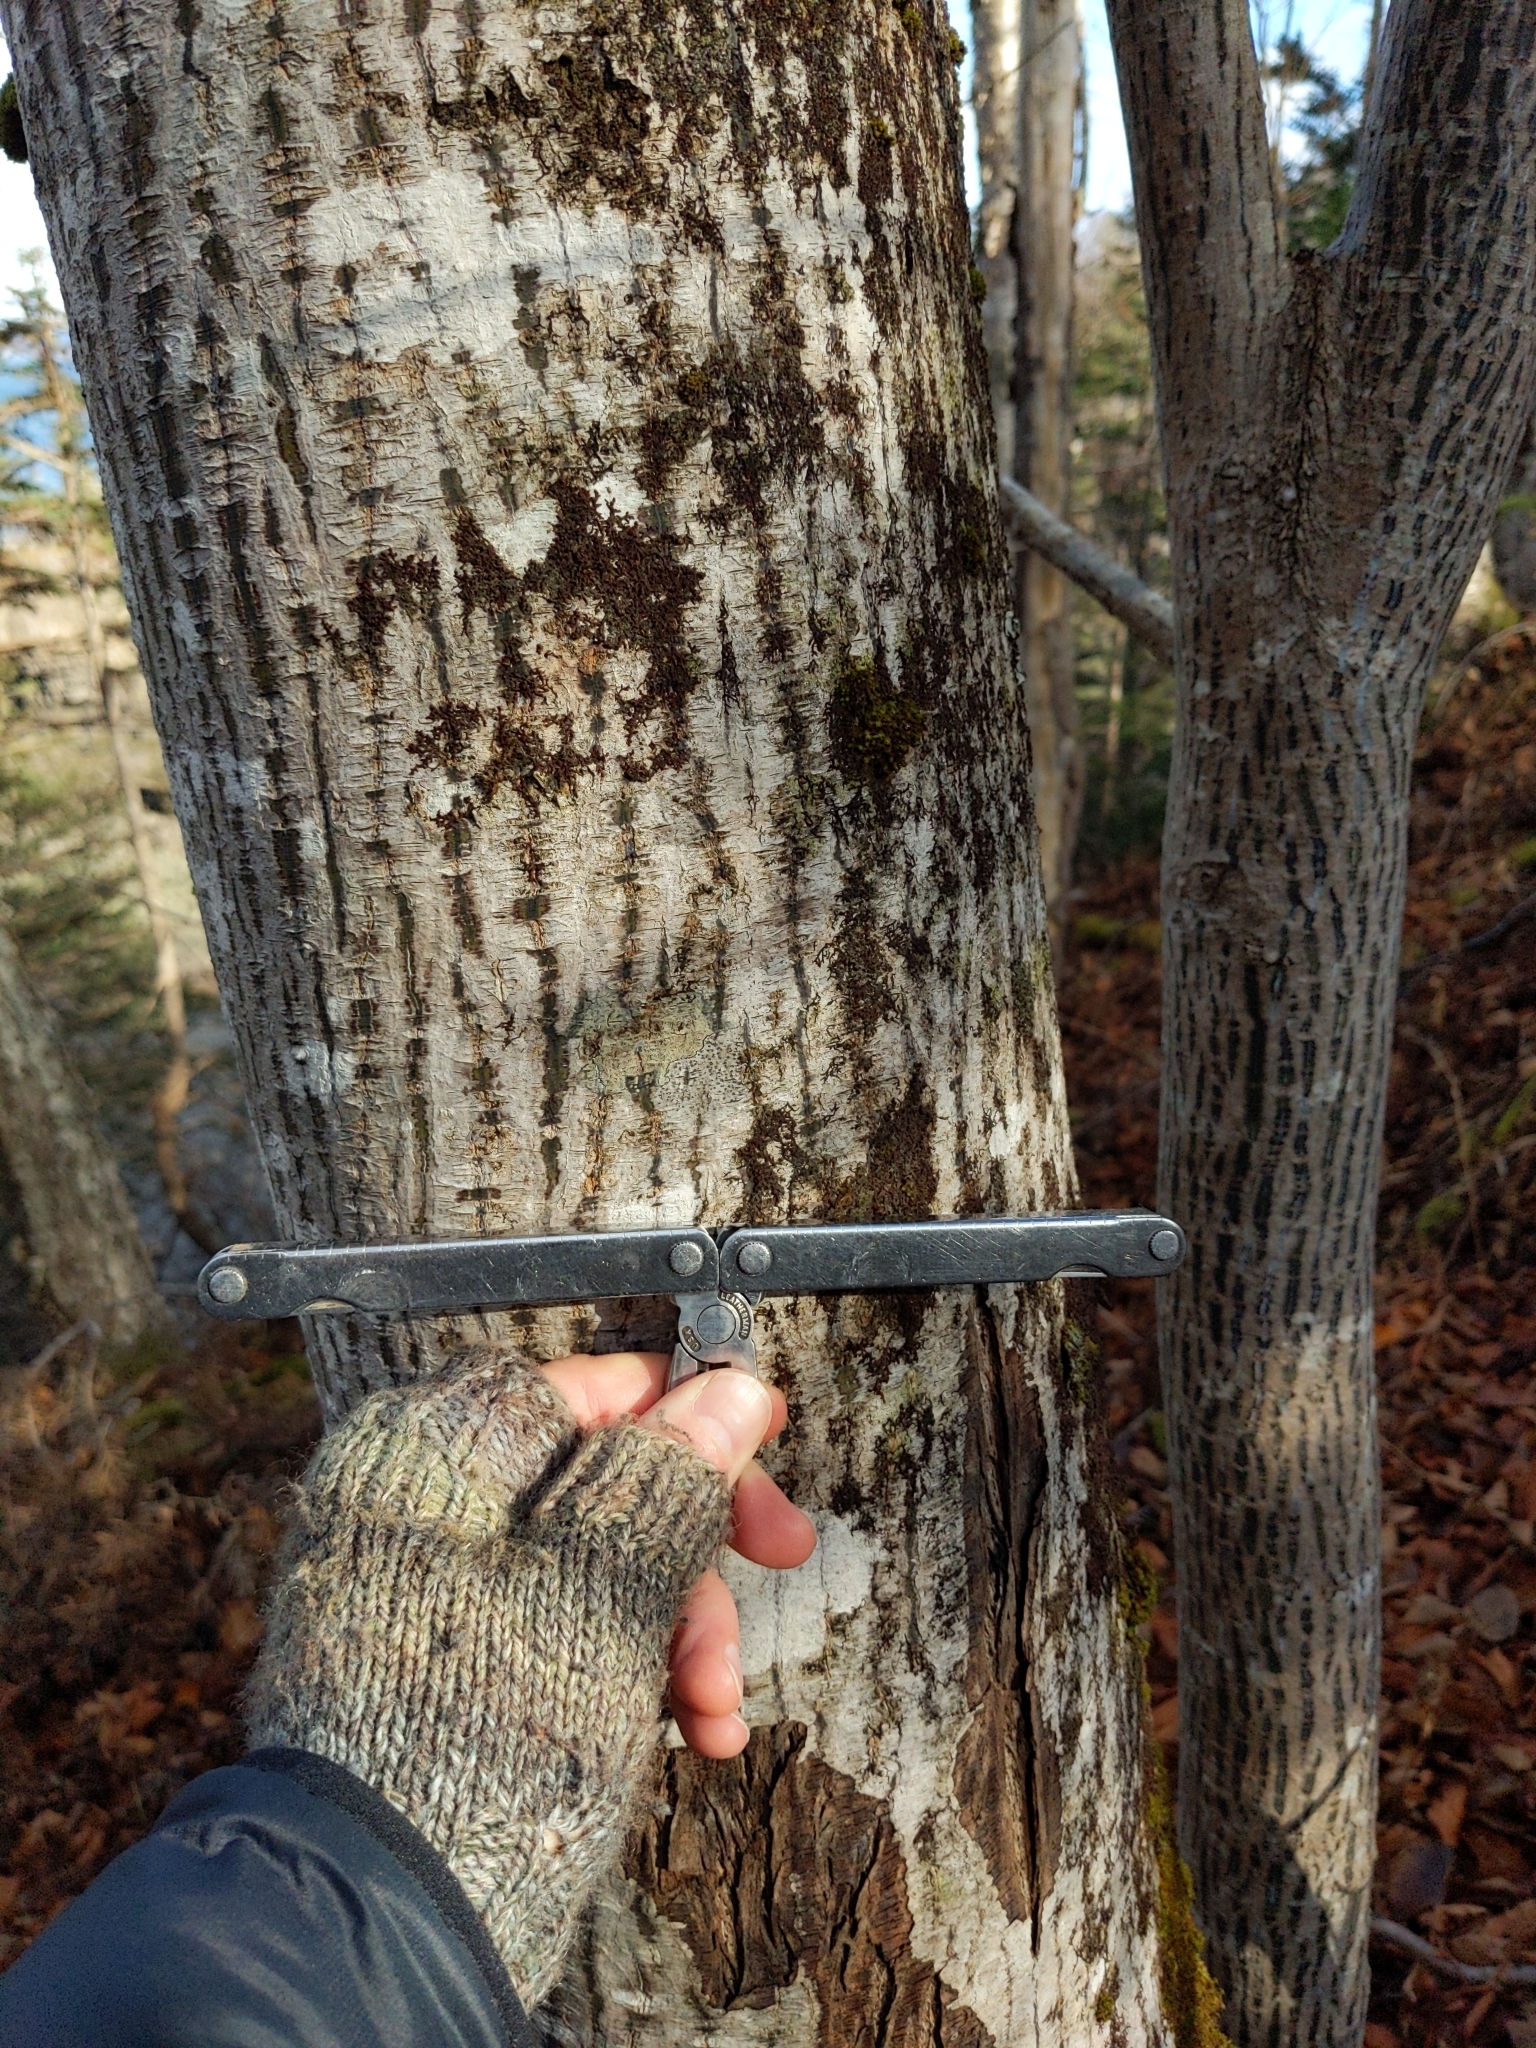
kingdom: Plantae
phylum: Tracheophyta
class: Magnoliopsida
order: Sapindales
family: Sapindaceae
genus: Acer
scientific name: Acer pensylvanicum
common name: Moosewood
